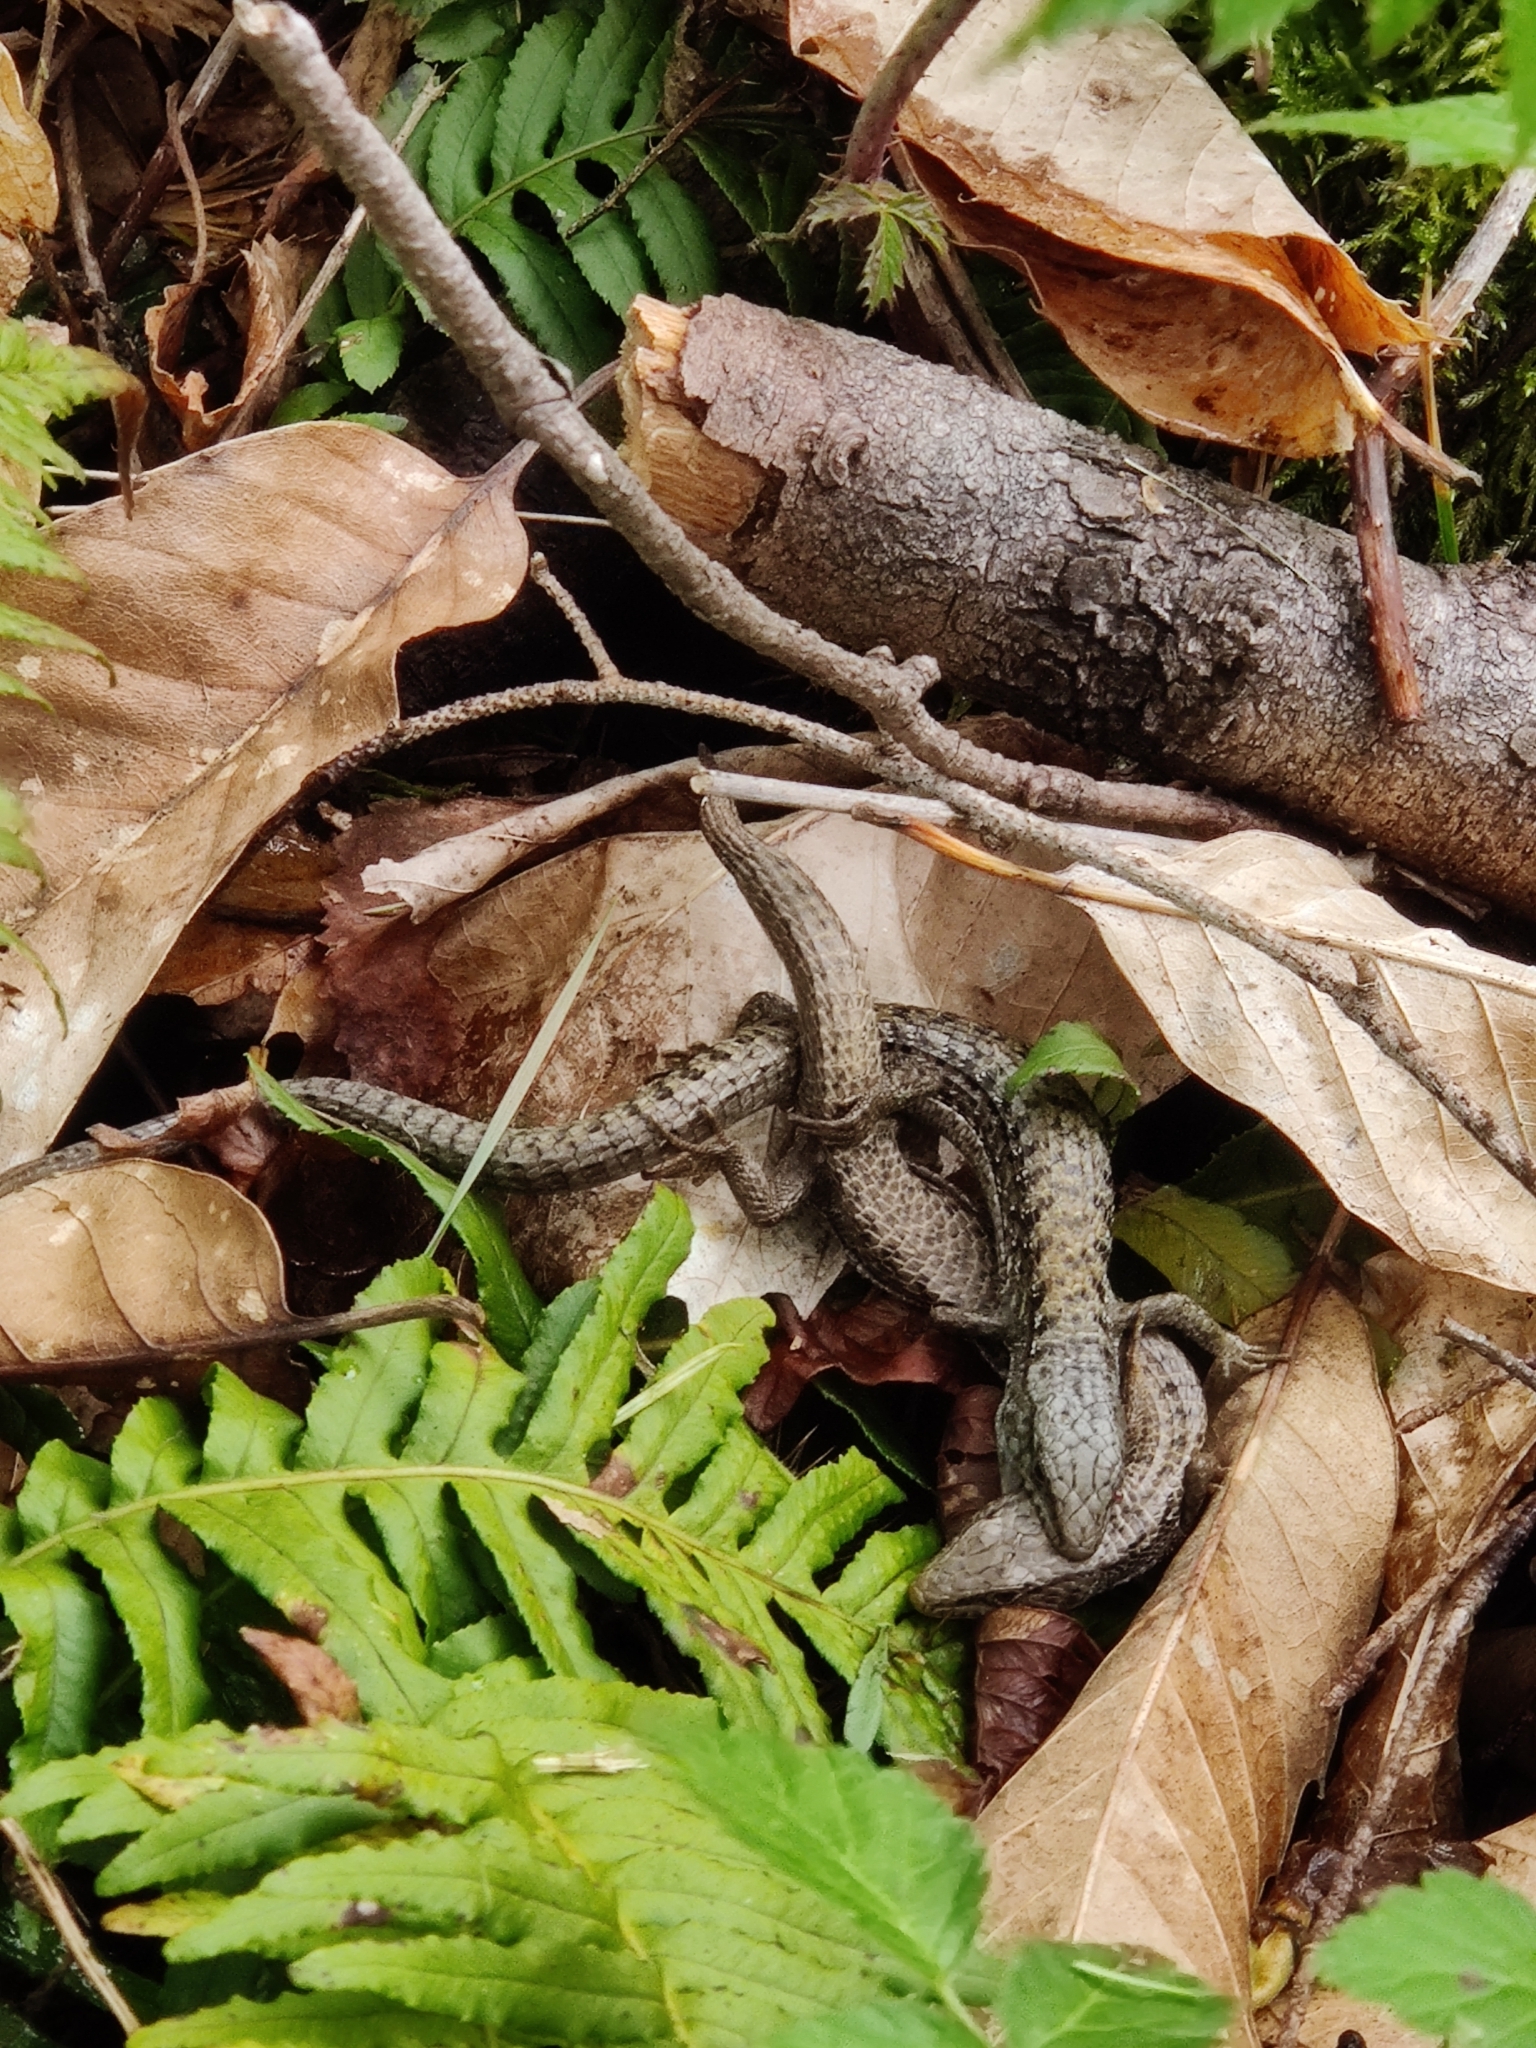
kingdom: Animalia
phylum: Chordata
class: Squamata
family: Anguidae
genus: Elgaria
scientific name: Elgaria coerulea
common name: Northern alligator lizard
